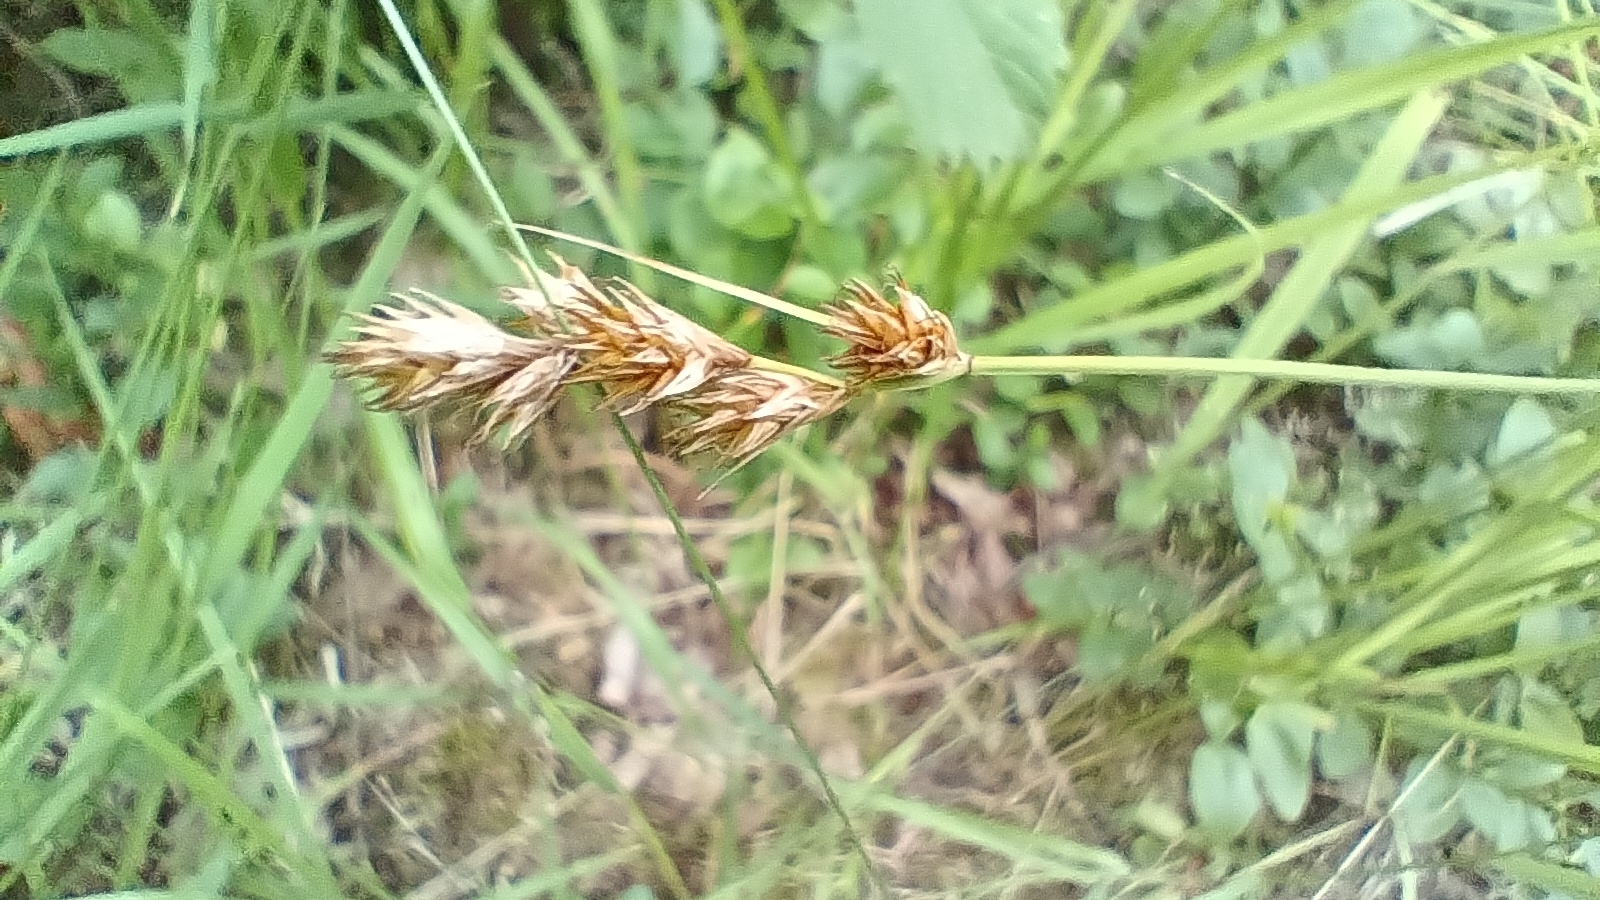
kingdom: Plantae
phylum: Tracheophyta
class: Liliopsida
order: Poales
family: Cyperaceae
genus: Carex
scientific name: Carex leporina
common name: Oval sedge
